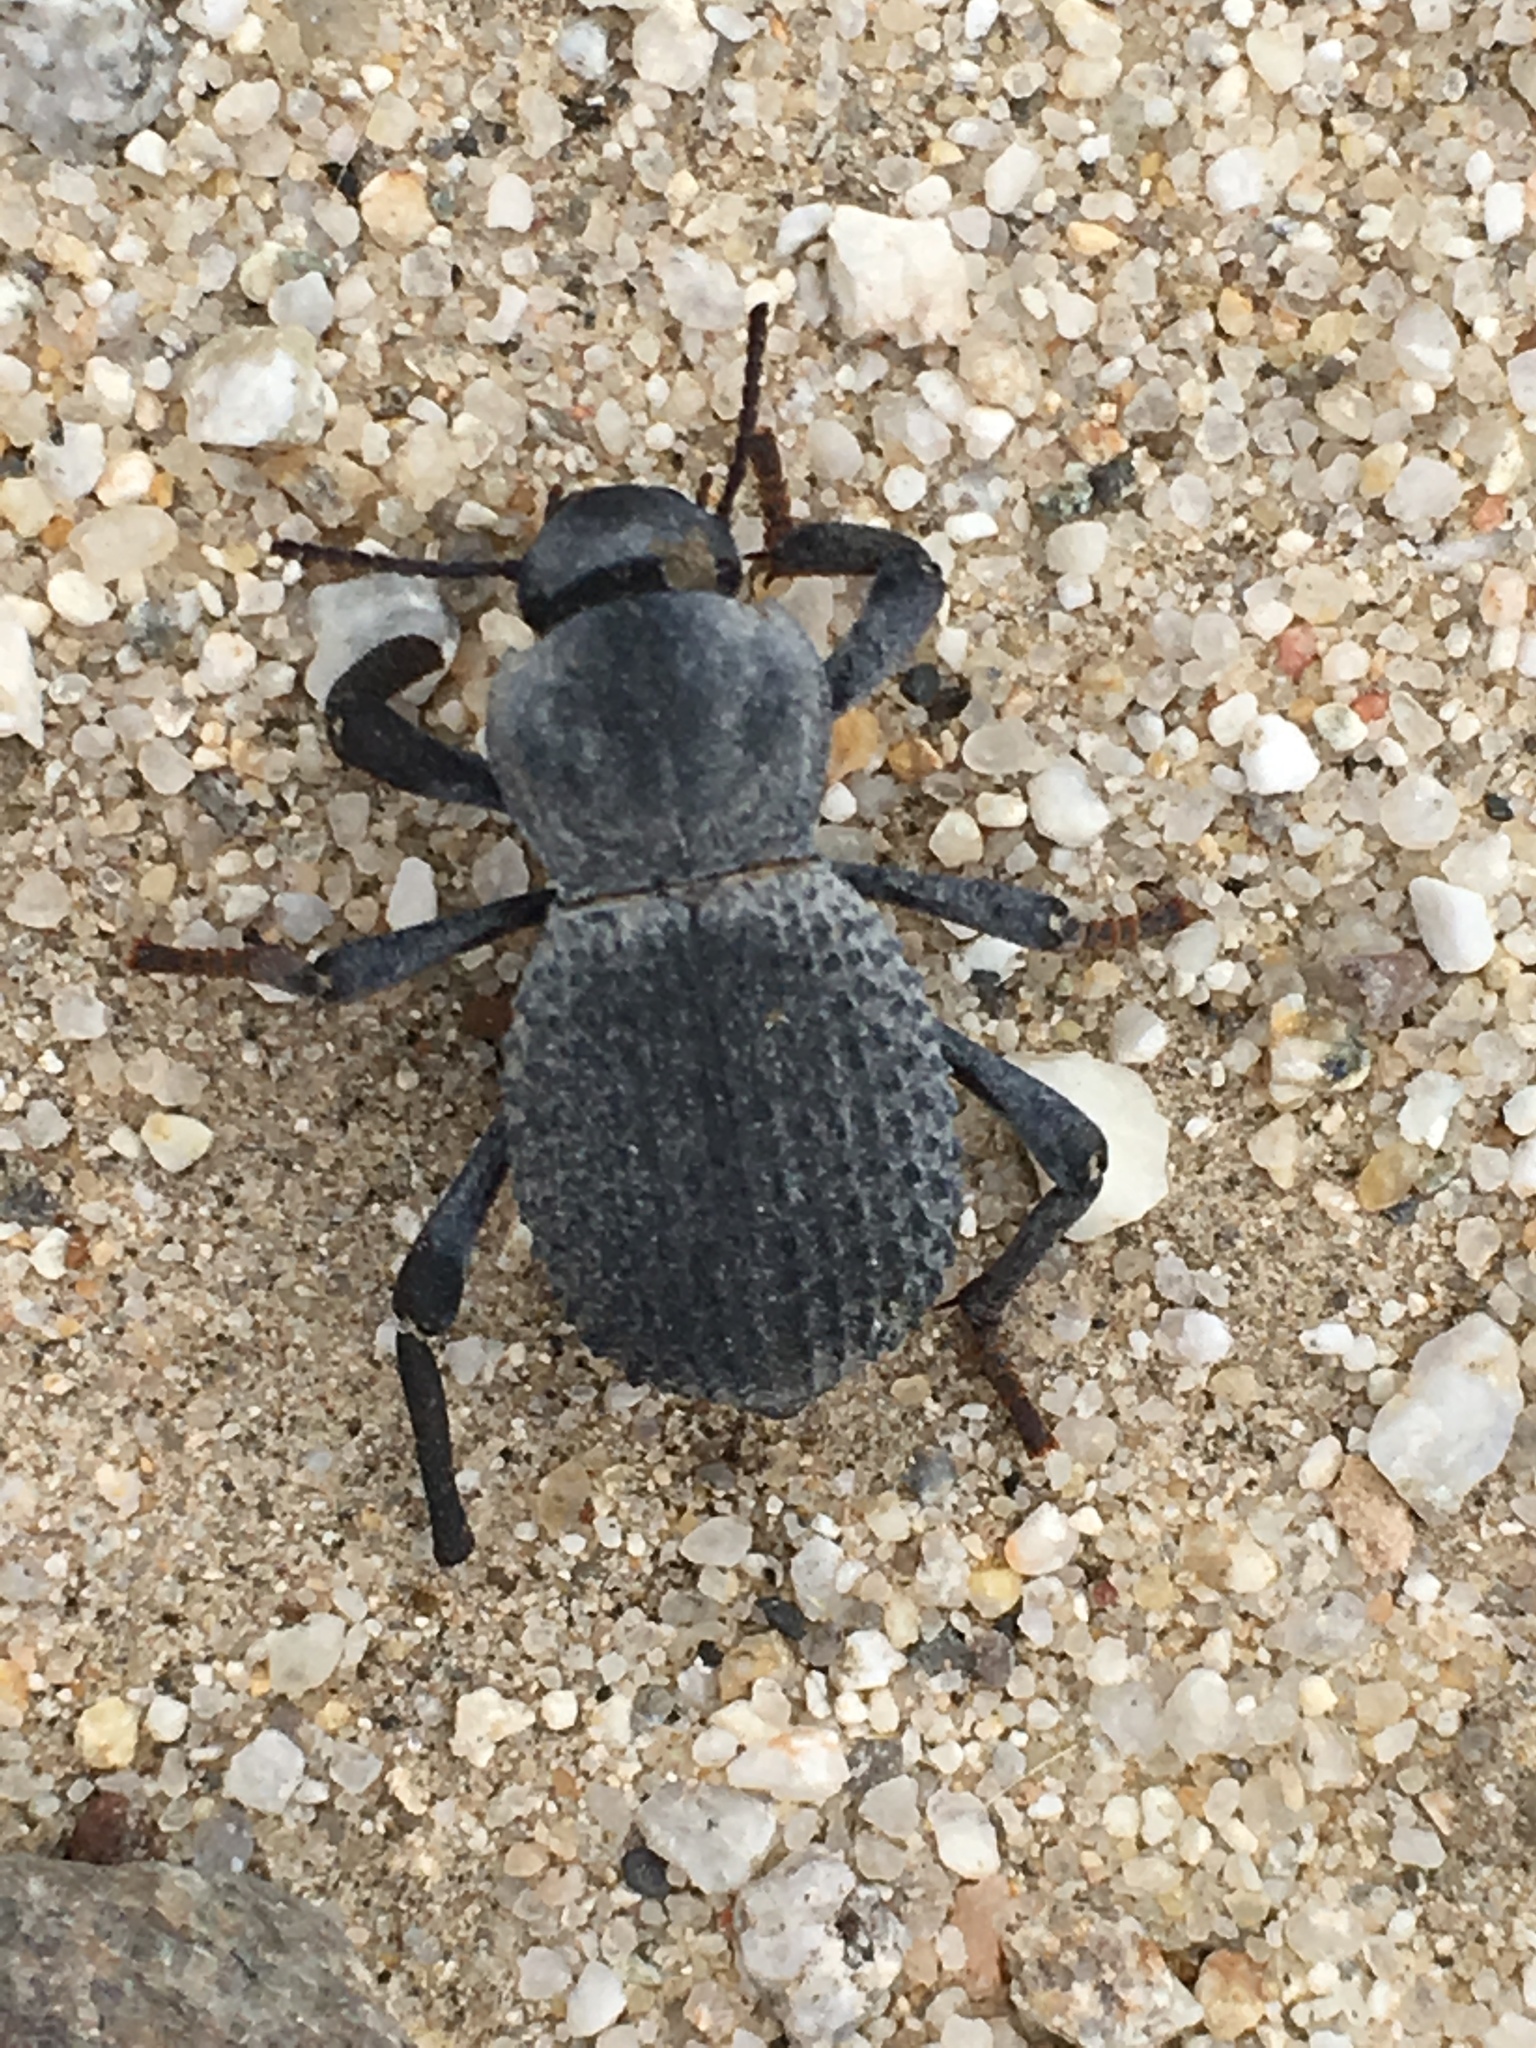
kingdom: Animalia
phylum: Arthropoda
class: Insecta
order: Coleoptera
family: Tenebrionidae
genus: Asbolus
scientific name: Asbolus verrucosus
